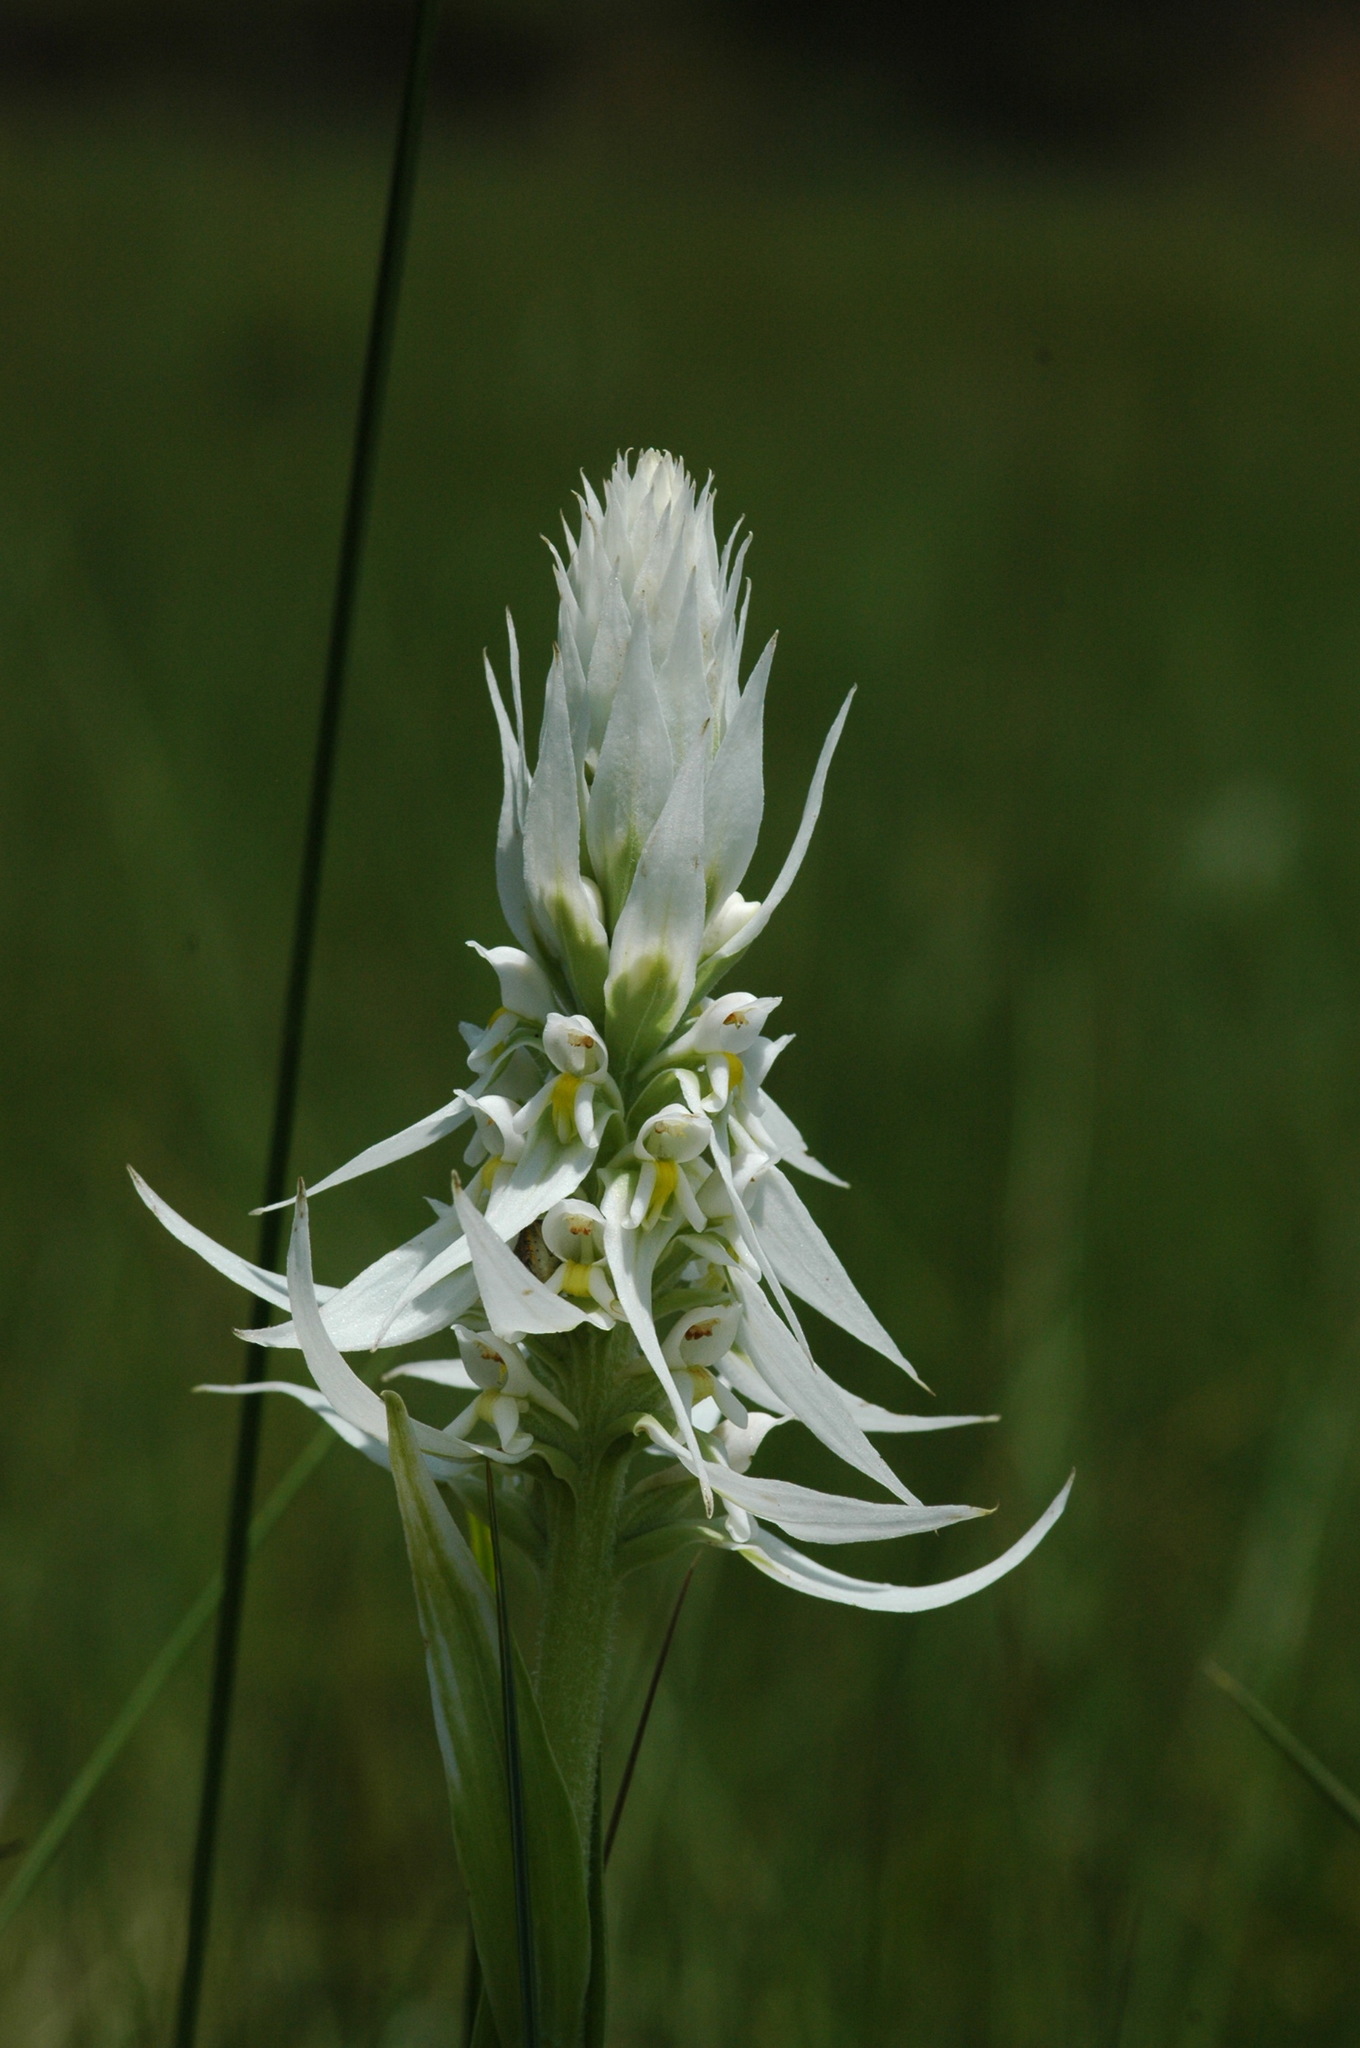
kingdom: Plantae
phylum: Tracheophyta
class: Liliopsida
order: Asparagales
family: Orchidaceae
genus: Satyrium
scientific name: Satyrium trinerve
